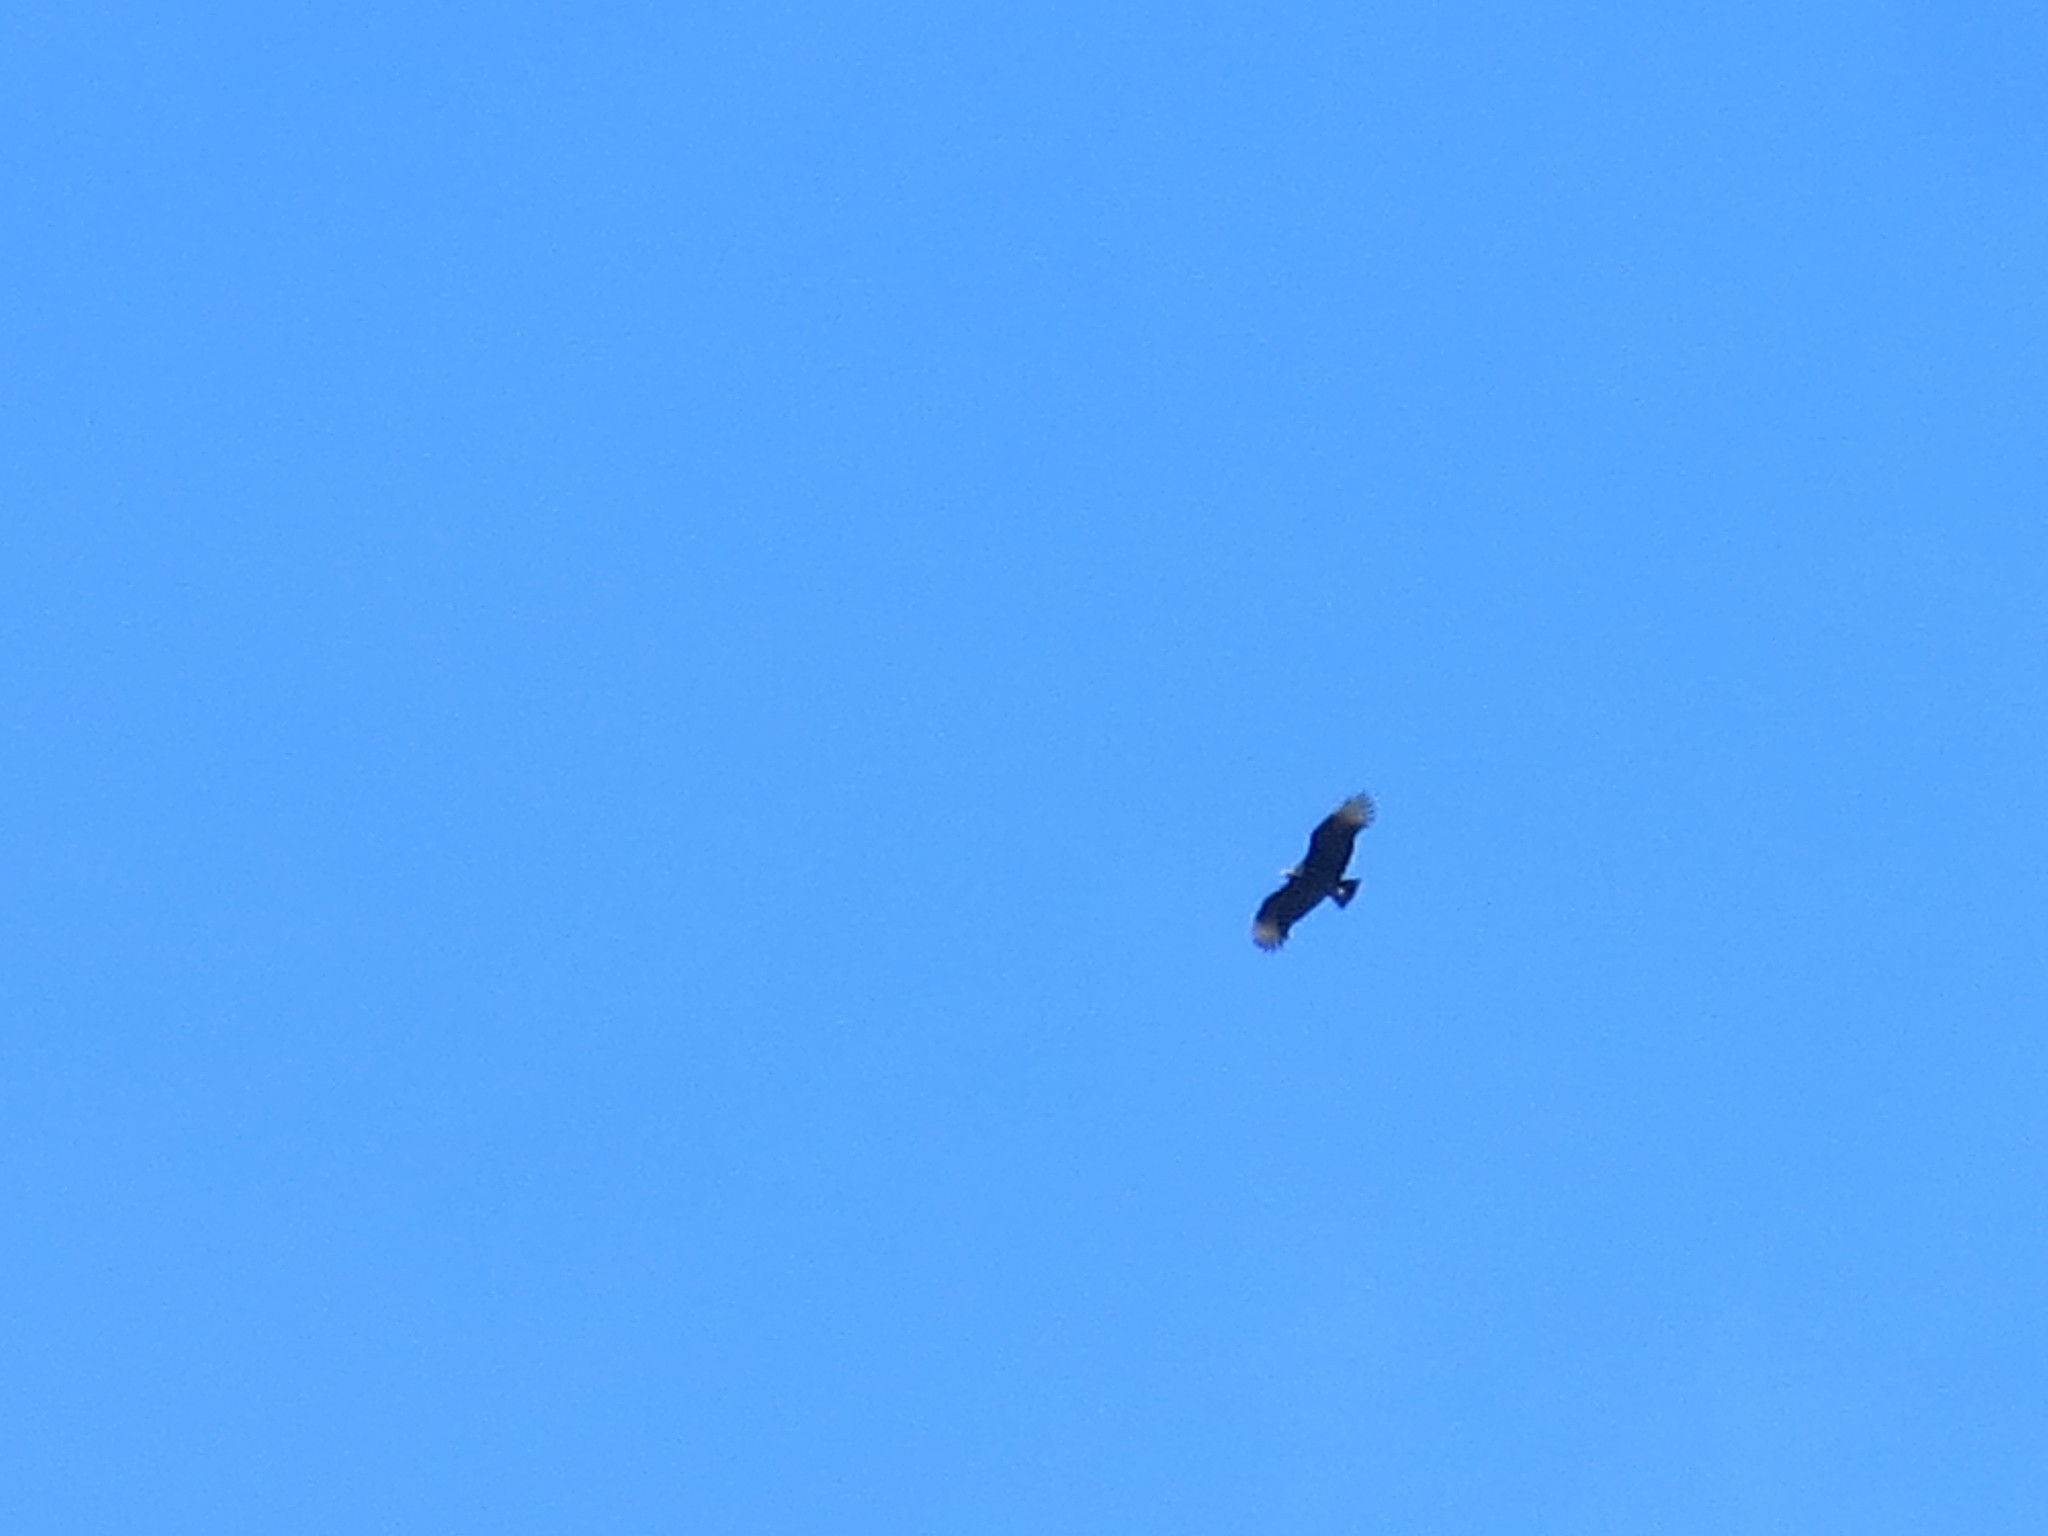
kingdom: Animalia
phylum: Chordata
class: Aves
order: Accipitriformes
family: Cathartidae
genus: Coragyps
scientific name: Coragyps atratus
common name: Black vulture
